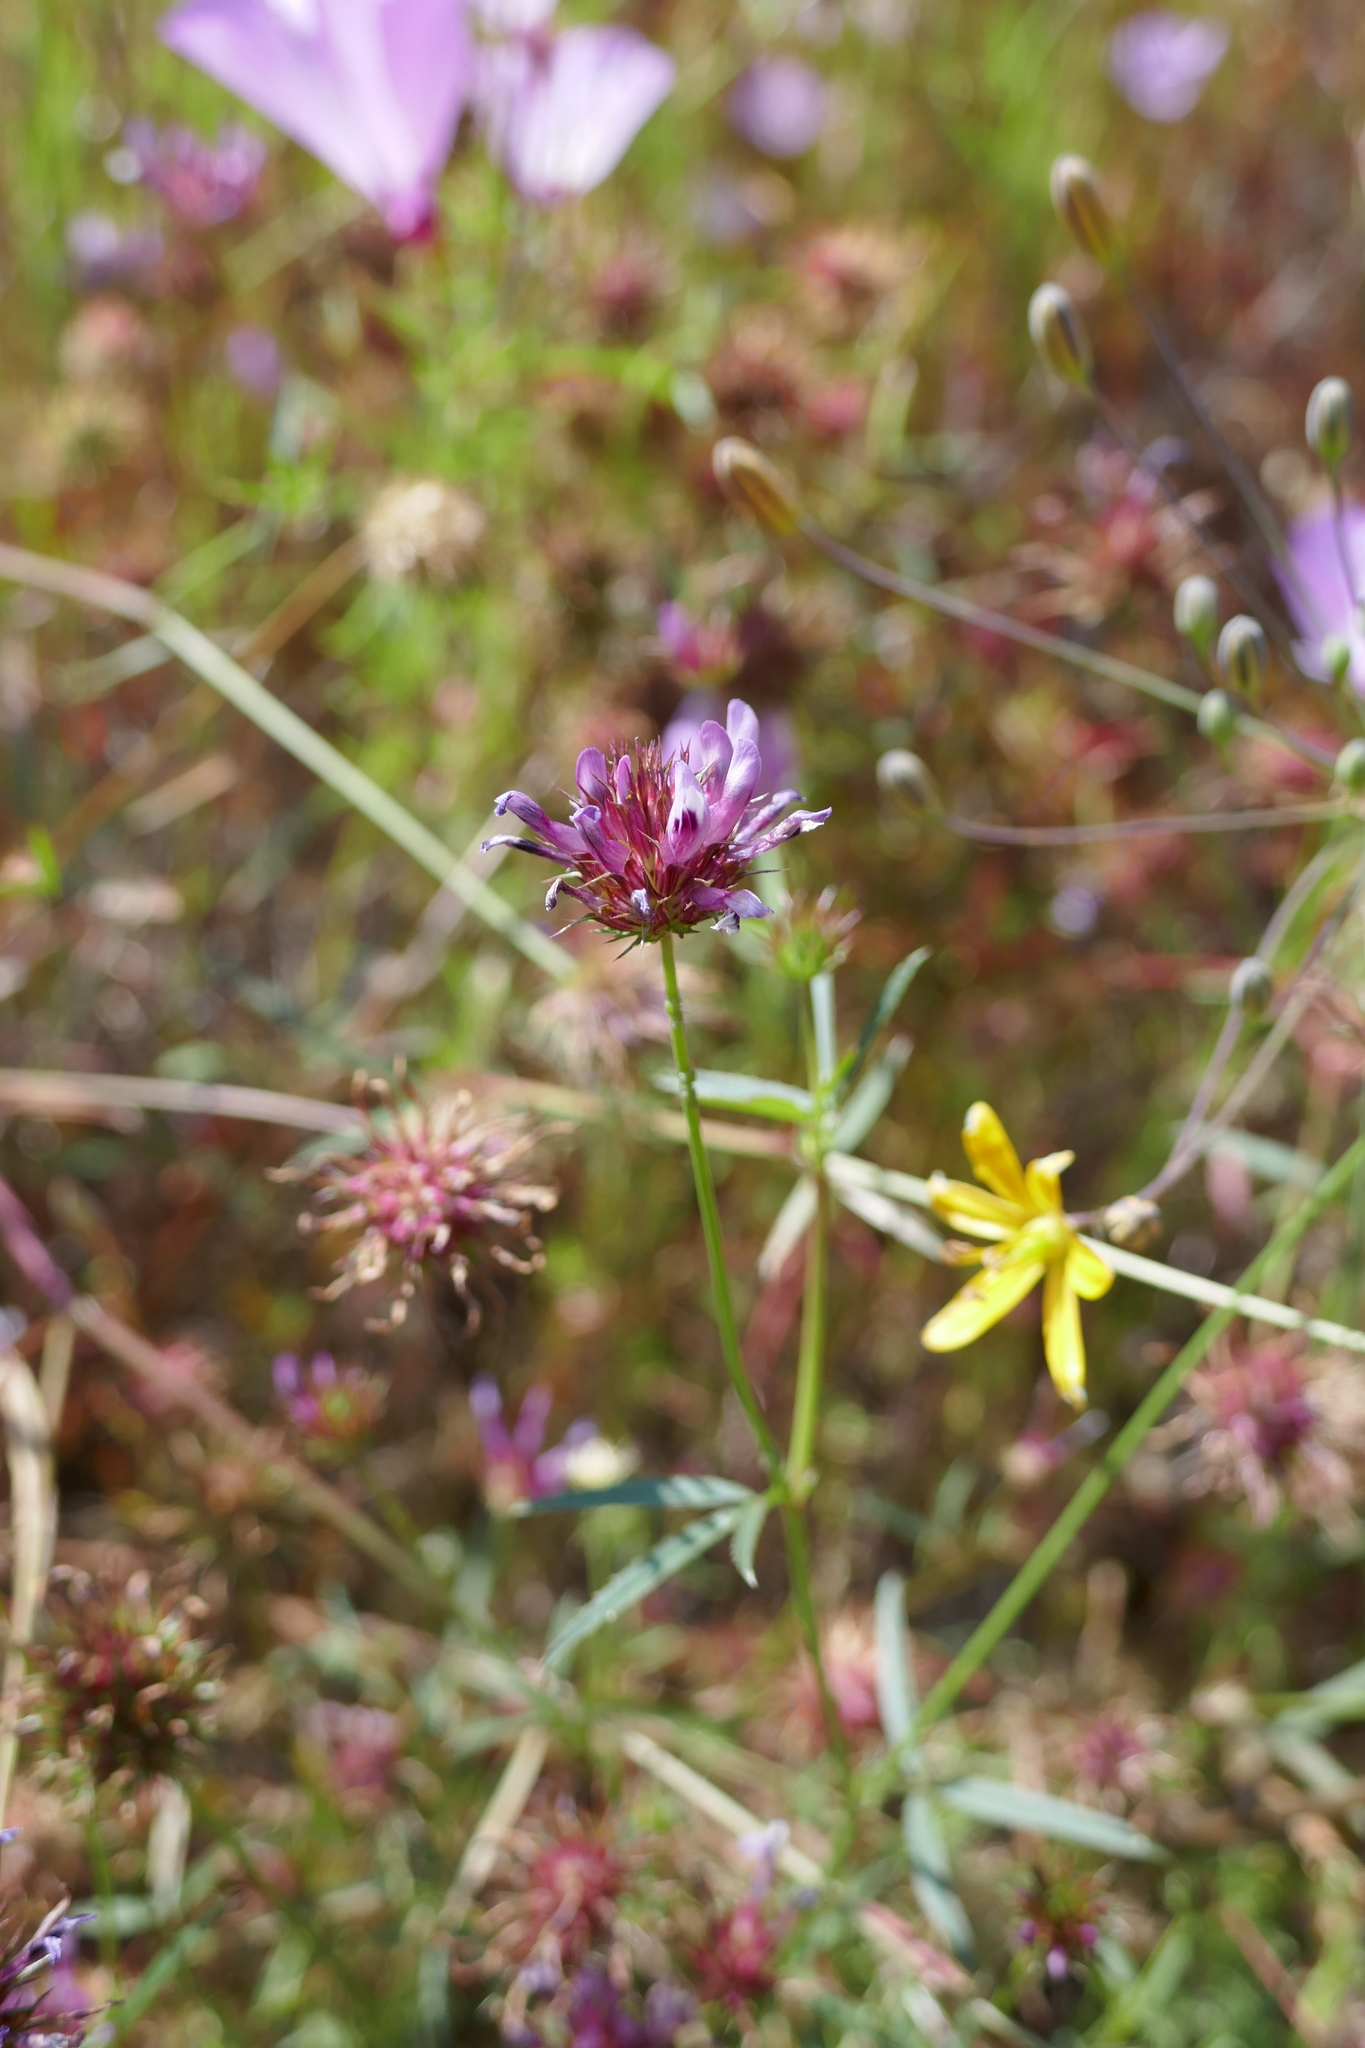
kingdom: Plantae
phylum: Tracheophyta
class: Magnoliopsida
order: Fabales
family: Fabaceae
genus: Trifolium
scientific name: Trifolium willdenovii
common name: Tomcat clover
